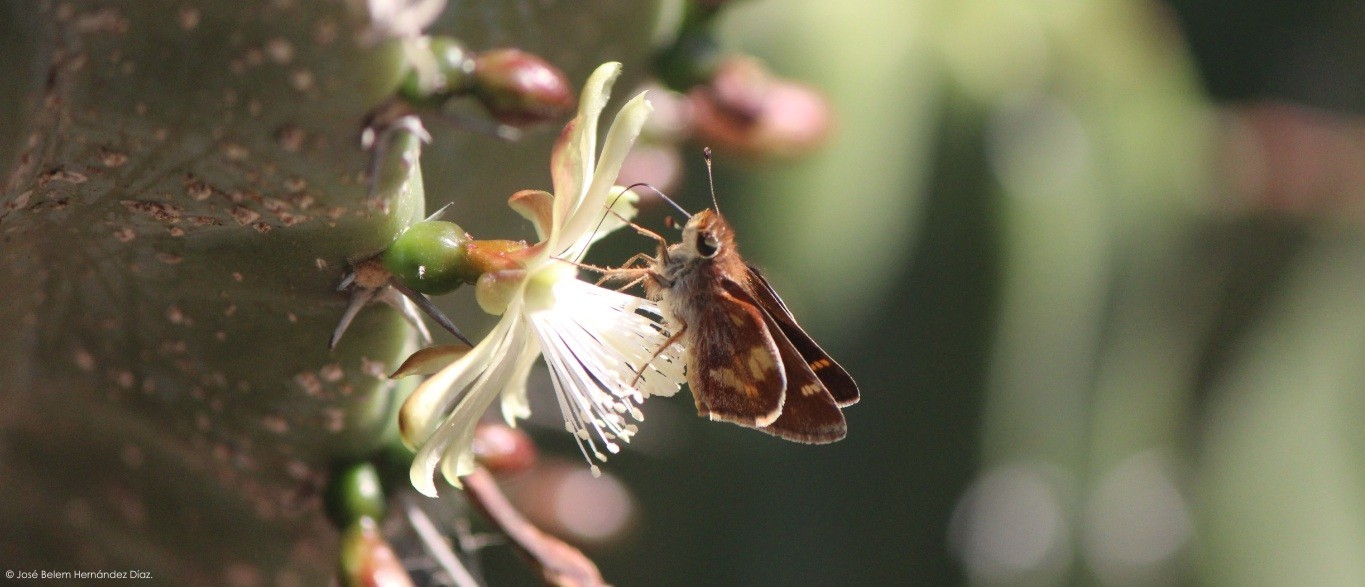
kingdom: Animalia
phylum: Arthropoda
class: Insecta
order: Lepidoptera
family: Hesperiidae
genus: Lon
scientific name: Lon
